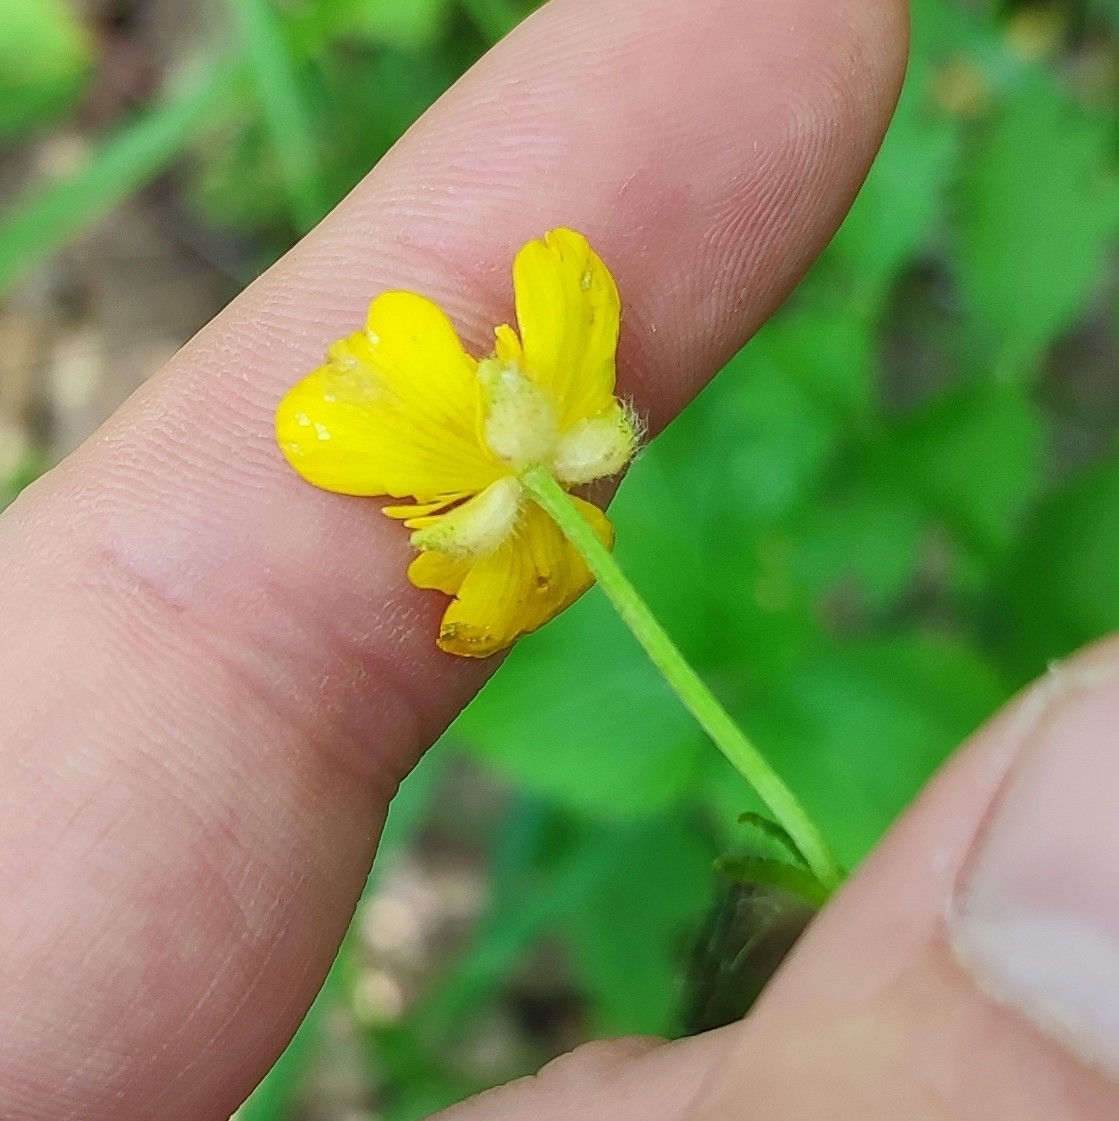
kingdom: Plantae
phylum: Tracheophyta
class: Magnoliopsida
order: Ranunculales
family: Ranunculaceae
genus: Ranunculus
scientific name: Ranunculus polyanthemos
